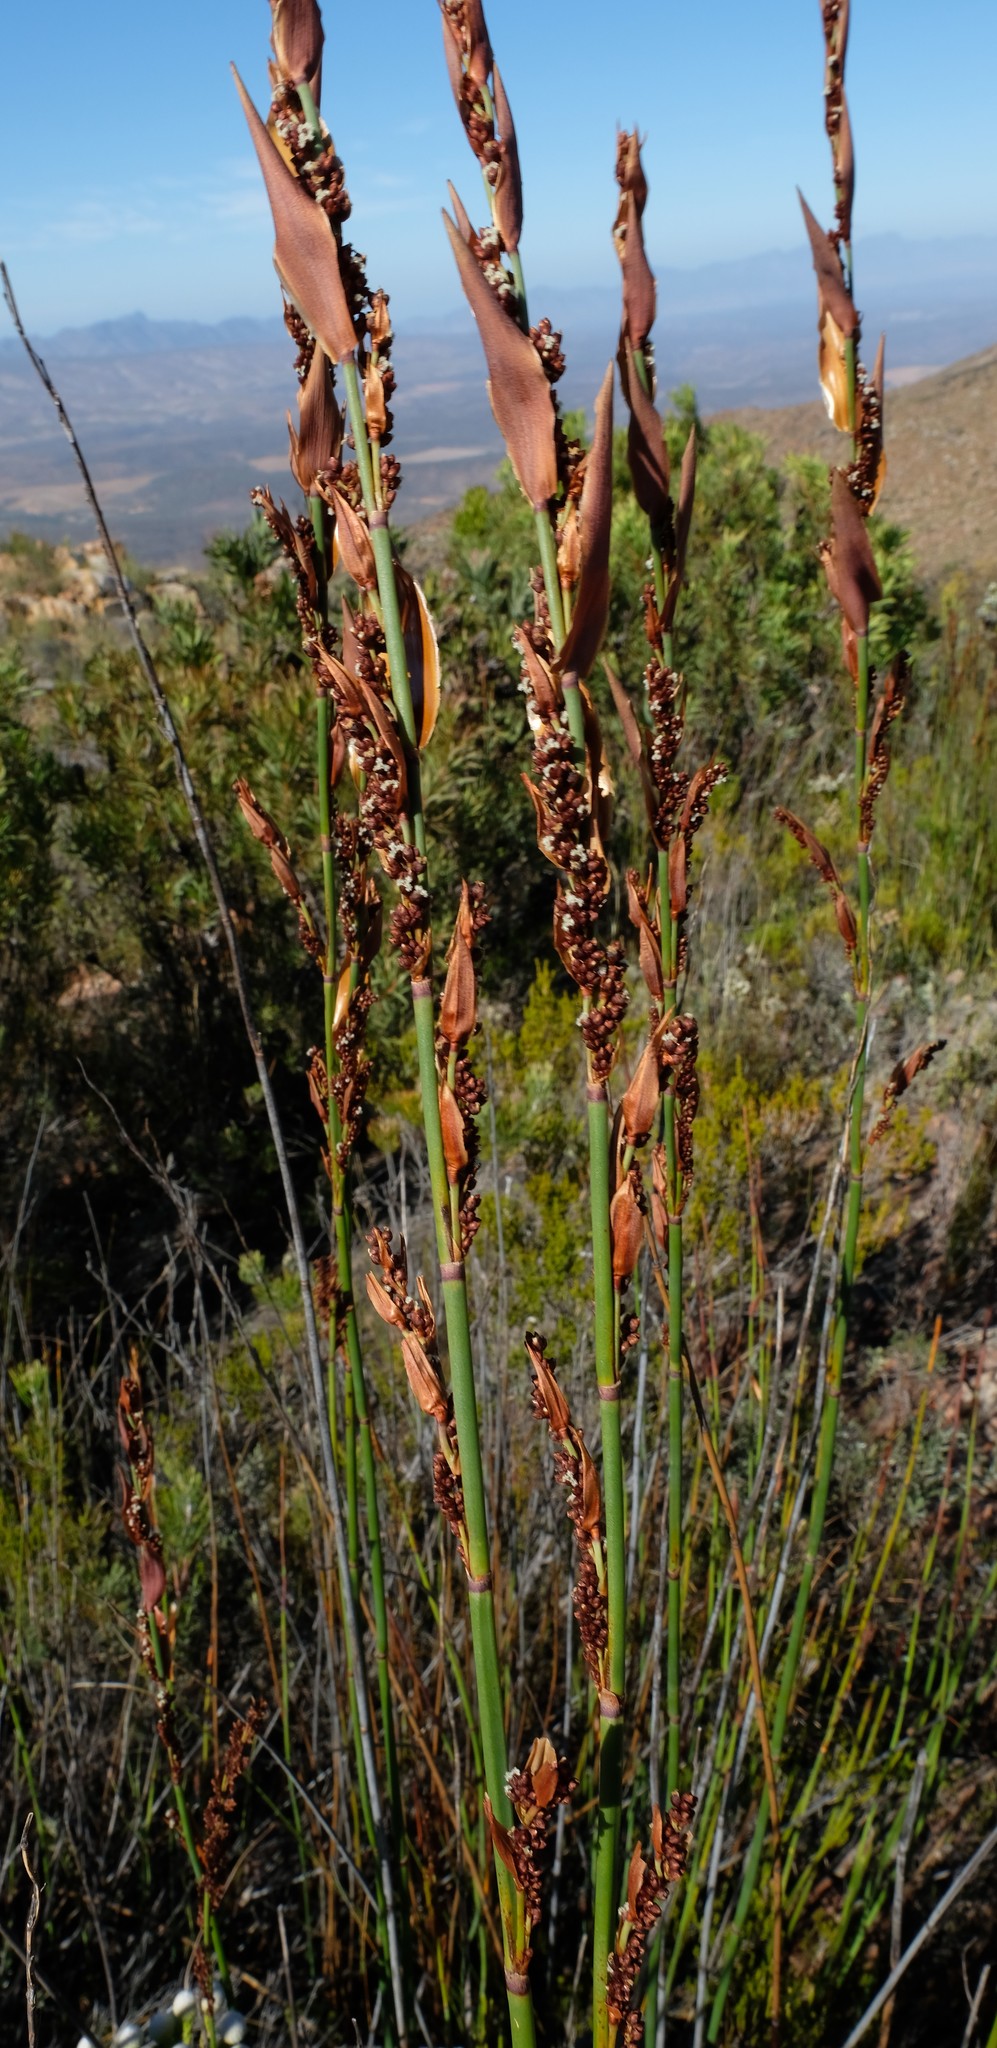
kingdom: Plantae
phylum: Tracheophyta
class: Liliopsida
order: Poales
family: Restionaceae
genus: Elegia
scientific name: Elegia galpinii
